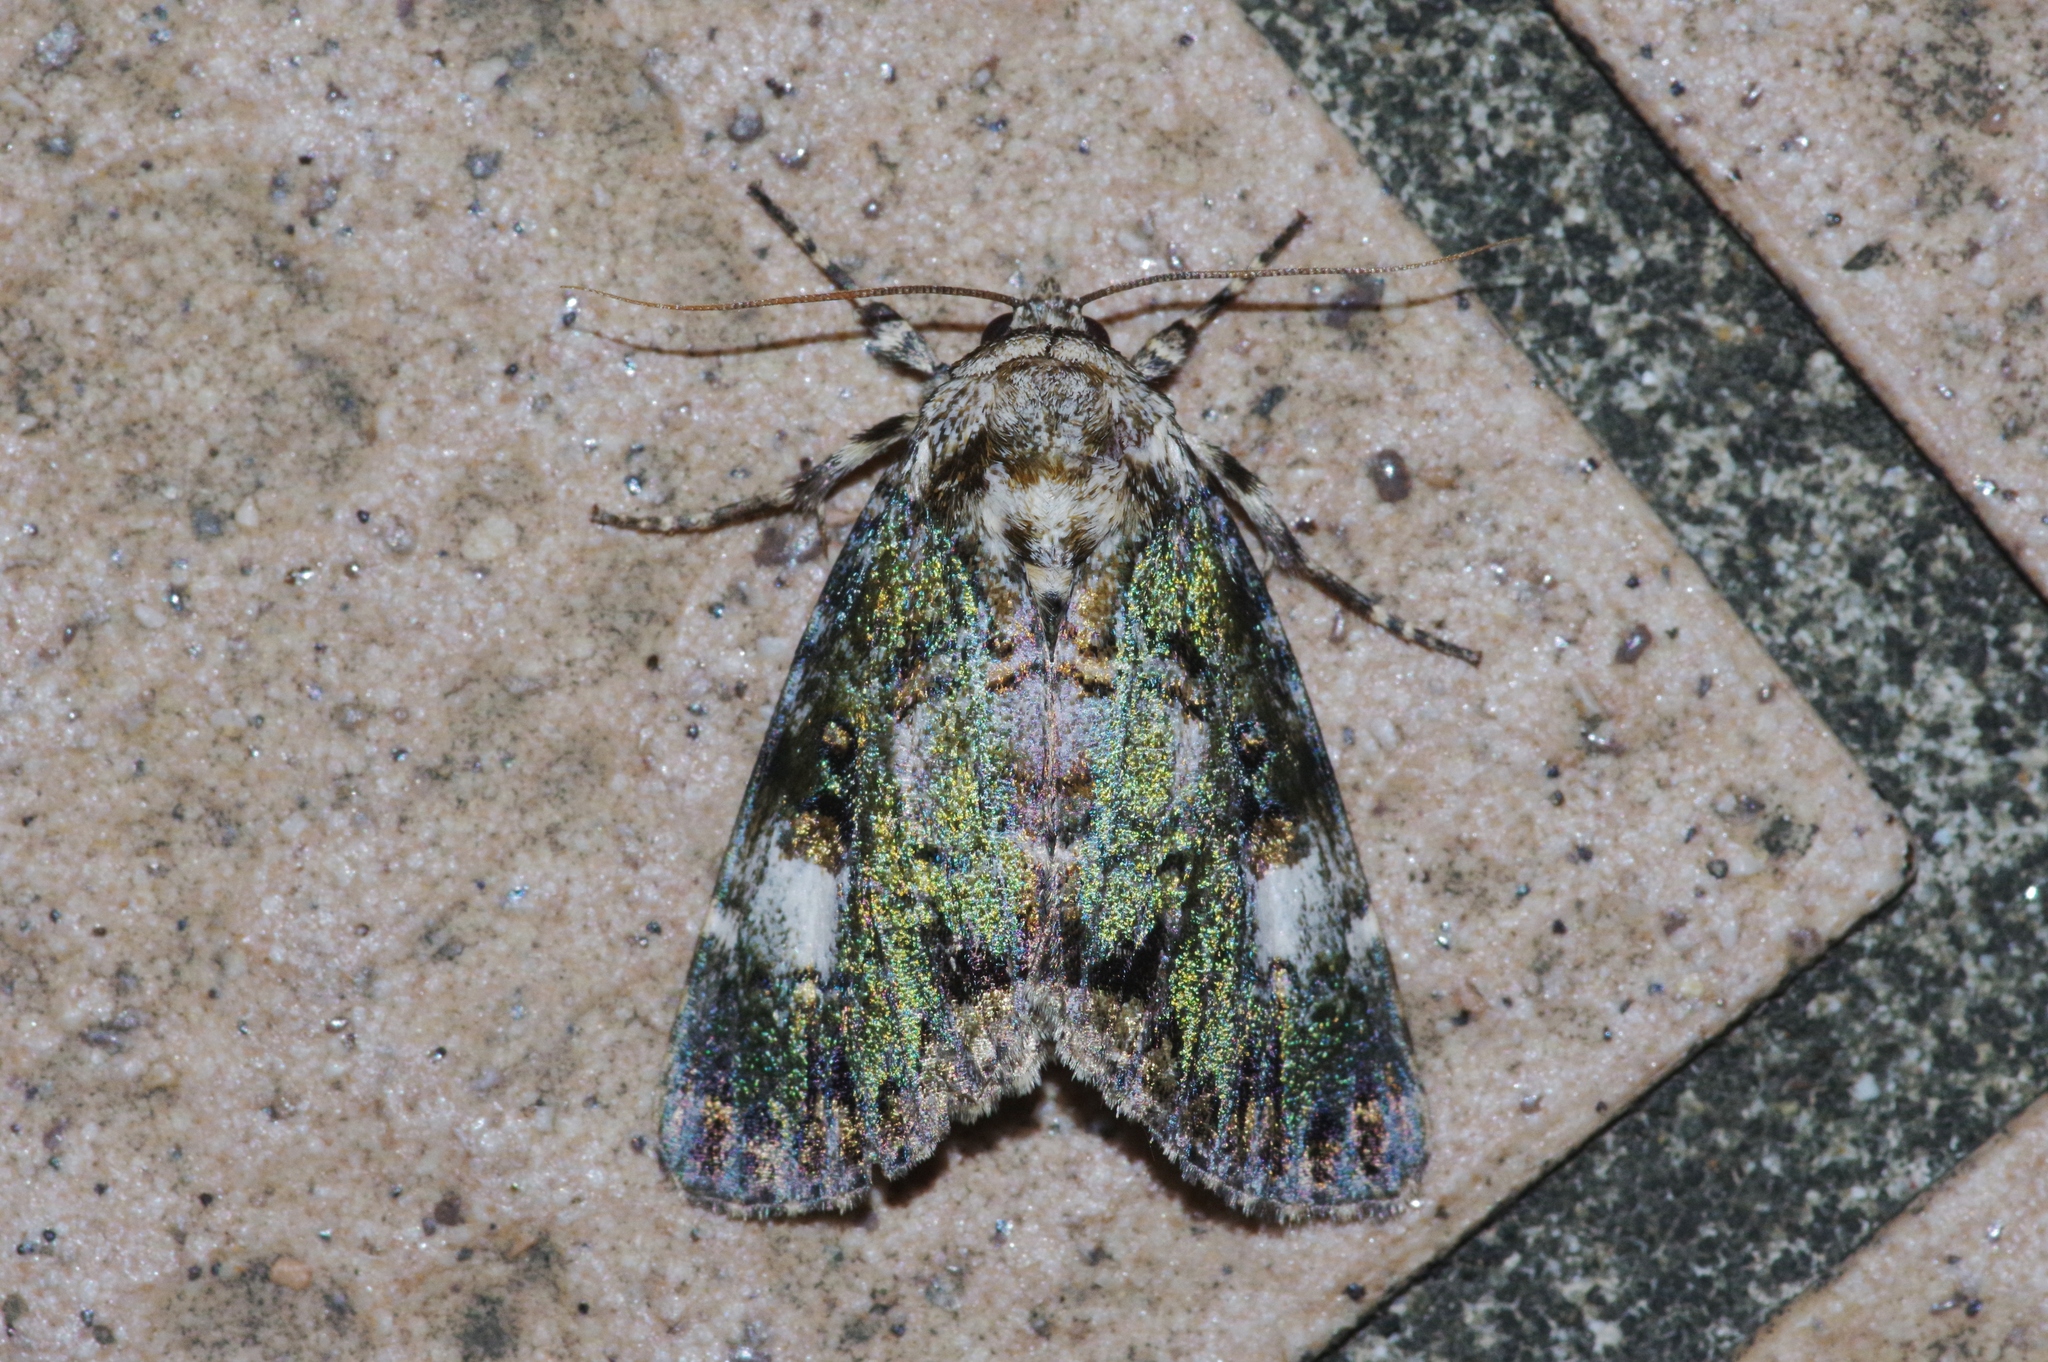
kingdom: Animalia
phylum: Arthropoda
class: Insecta
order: Lepidoptera
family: Noctuidae
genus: Anacronicta
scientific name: Anacronicta okinawensis
